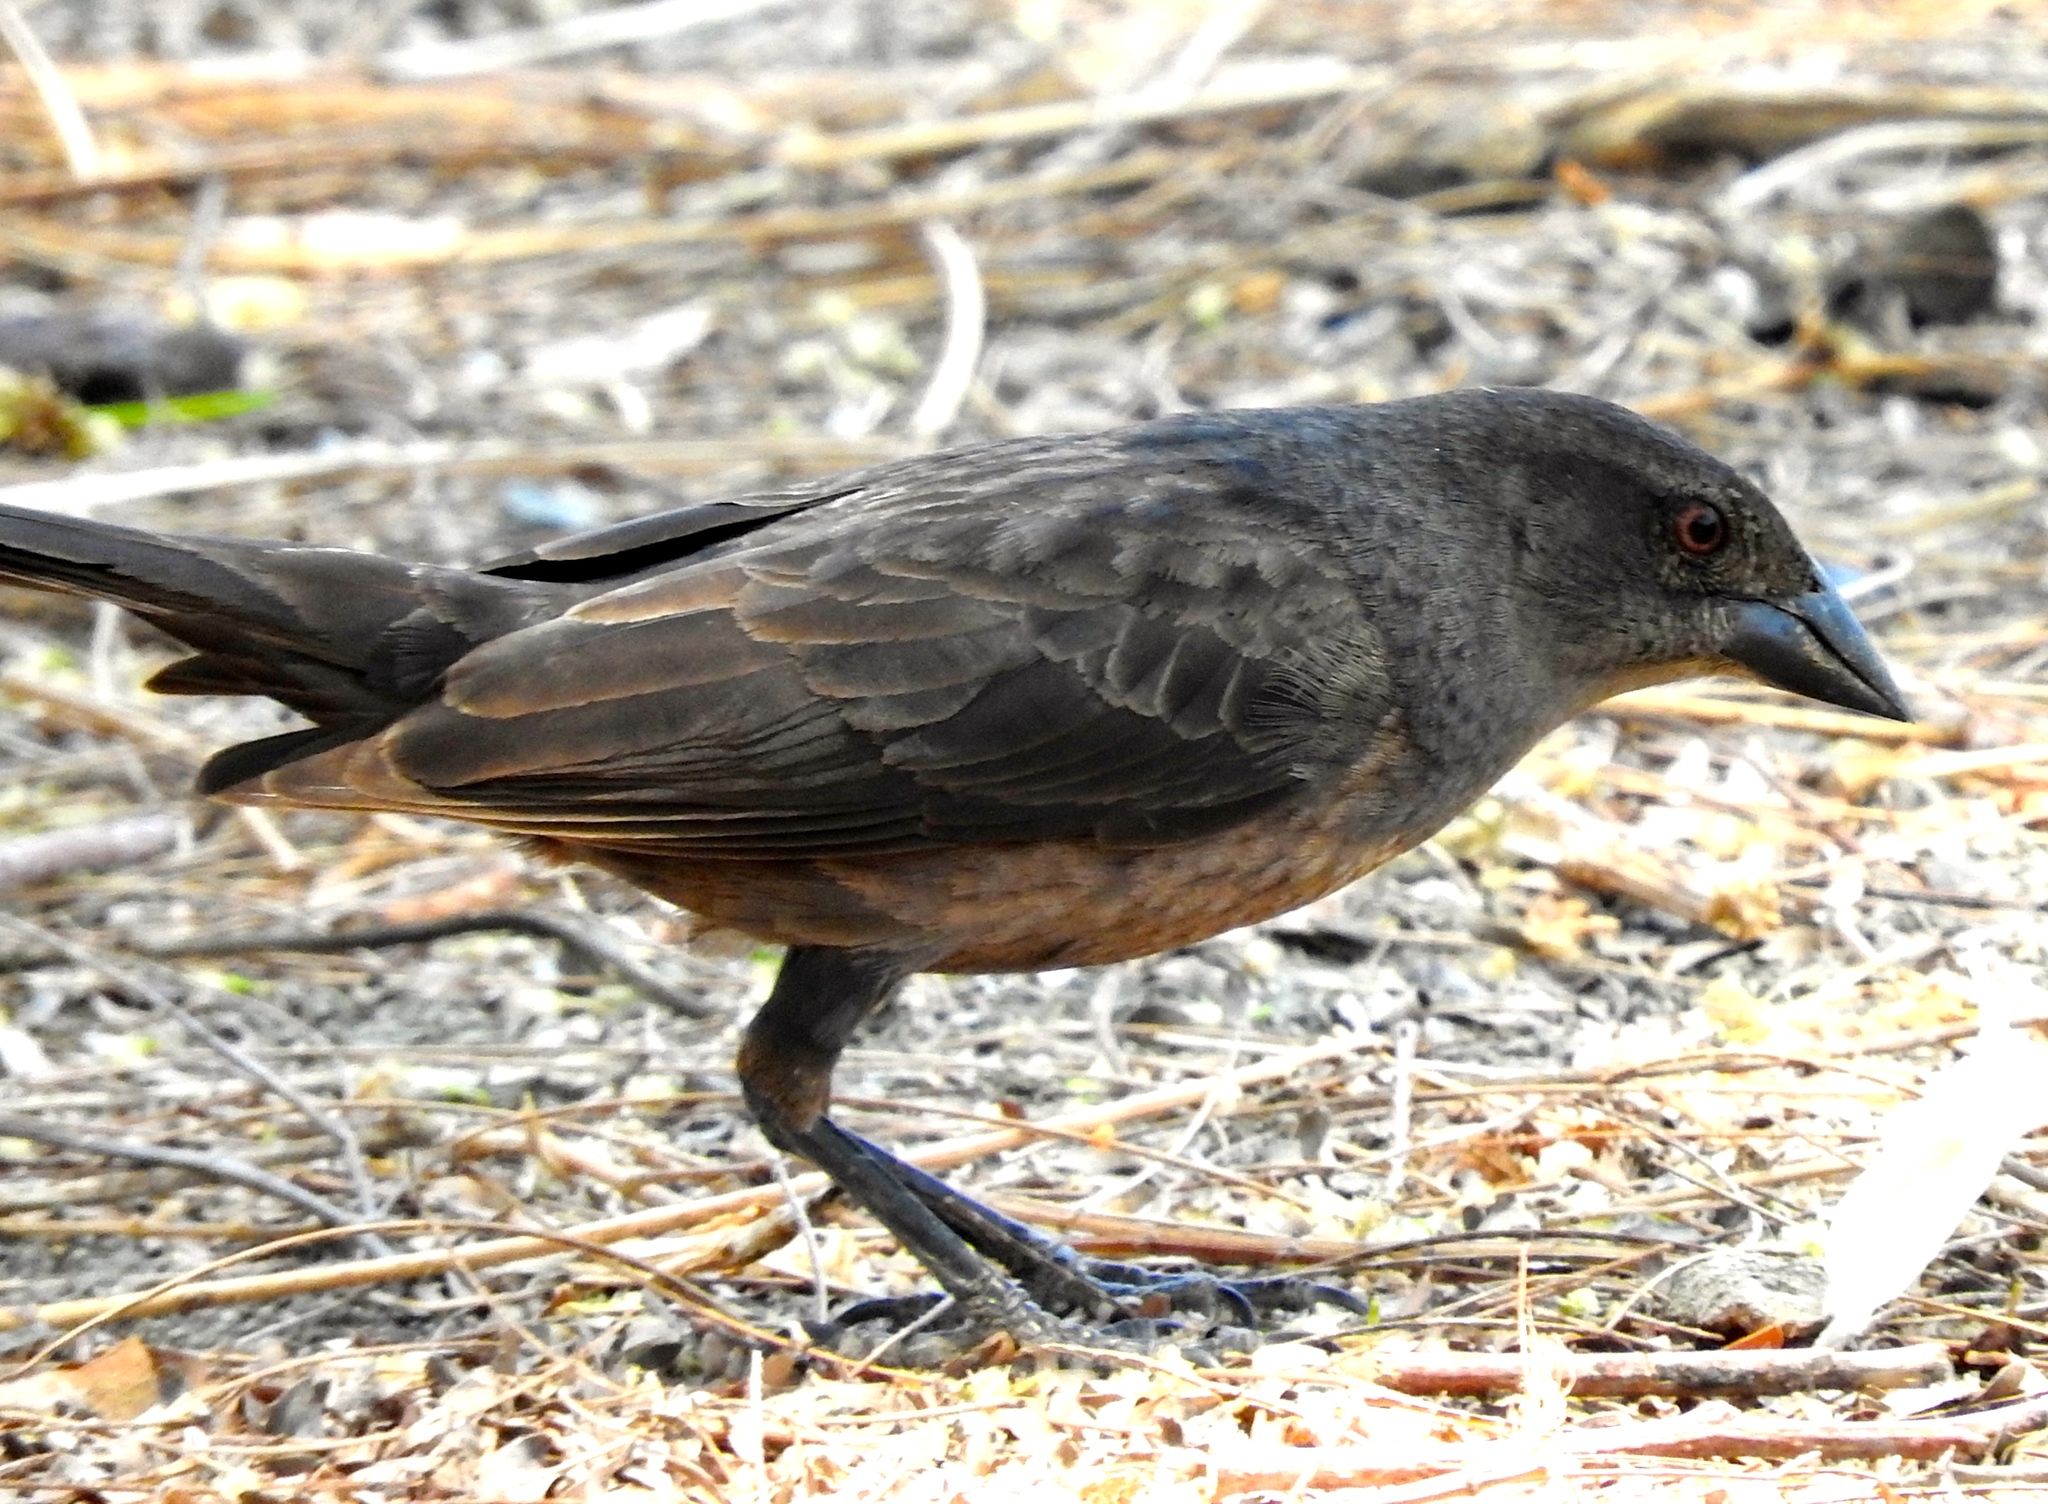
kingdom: Animalia
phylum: Chordata
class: Aves
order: Passeriformes
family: Icteridae
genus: Molothrus
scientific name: Molothrus aeneus
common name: Bronzed cowbird
